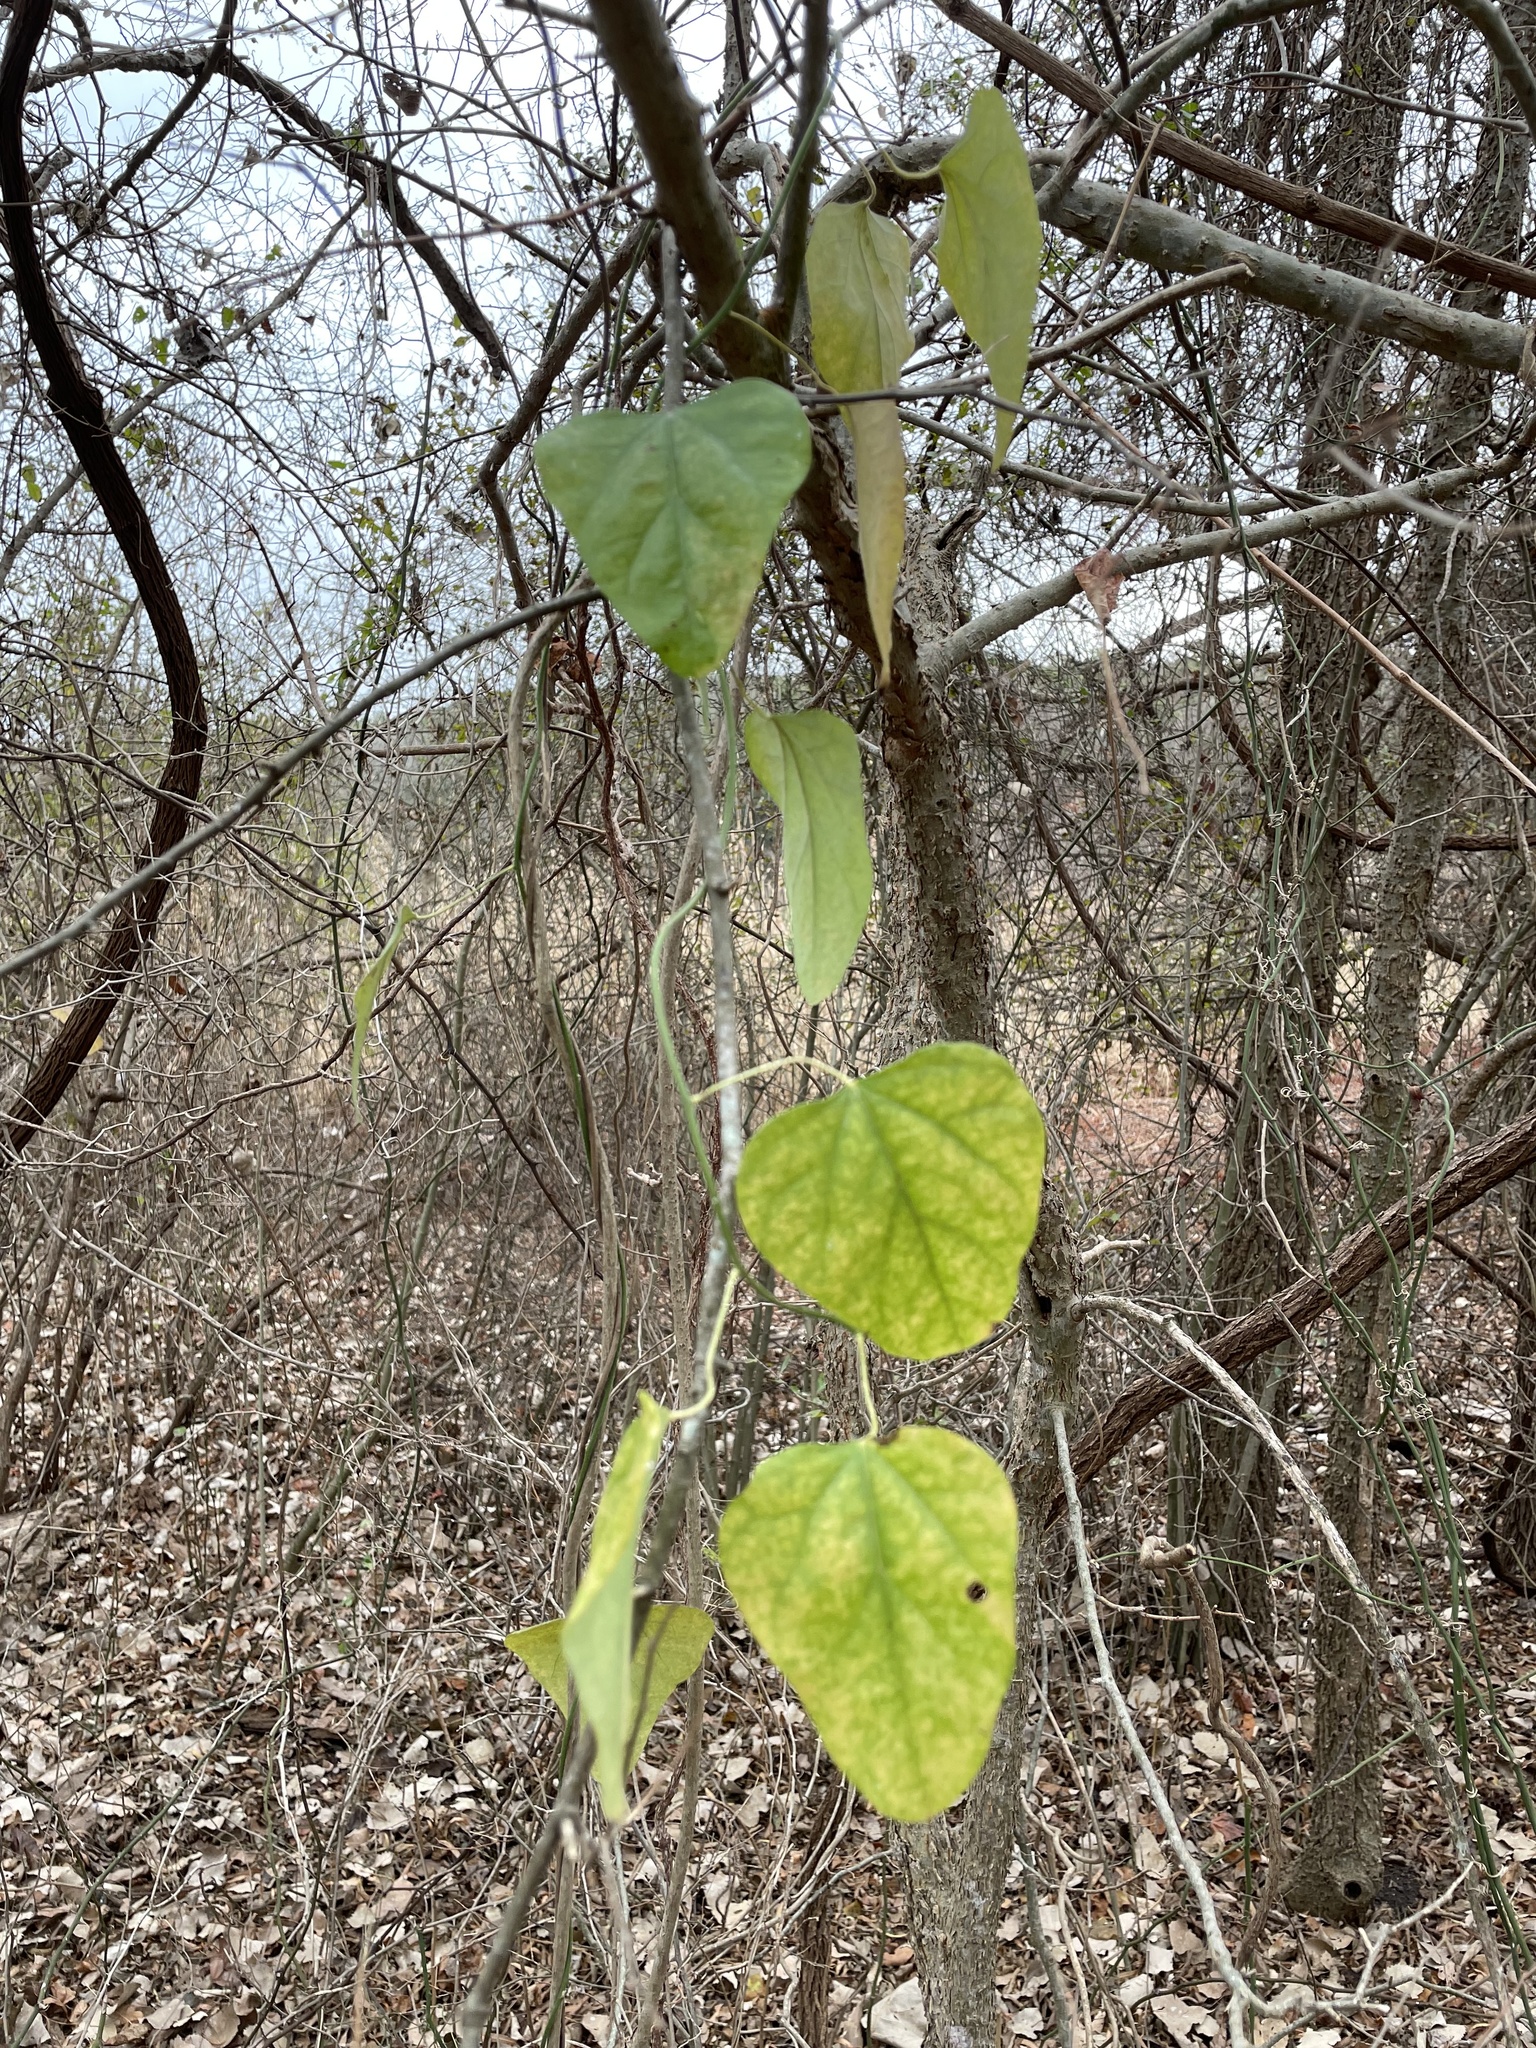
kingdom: Plantae
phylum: Tracheophyta
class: Magnoliopsida
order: Ranunculales
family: Menispermaceae
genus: Cocculus
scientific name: Cocculus carolinus
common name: Carolina moonseed
